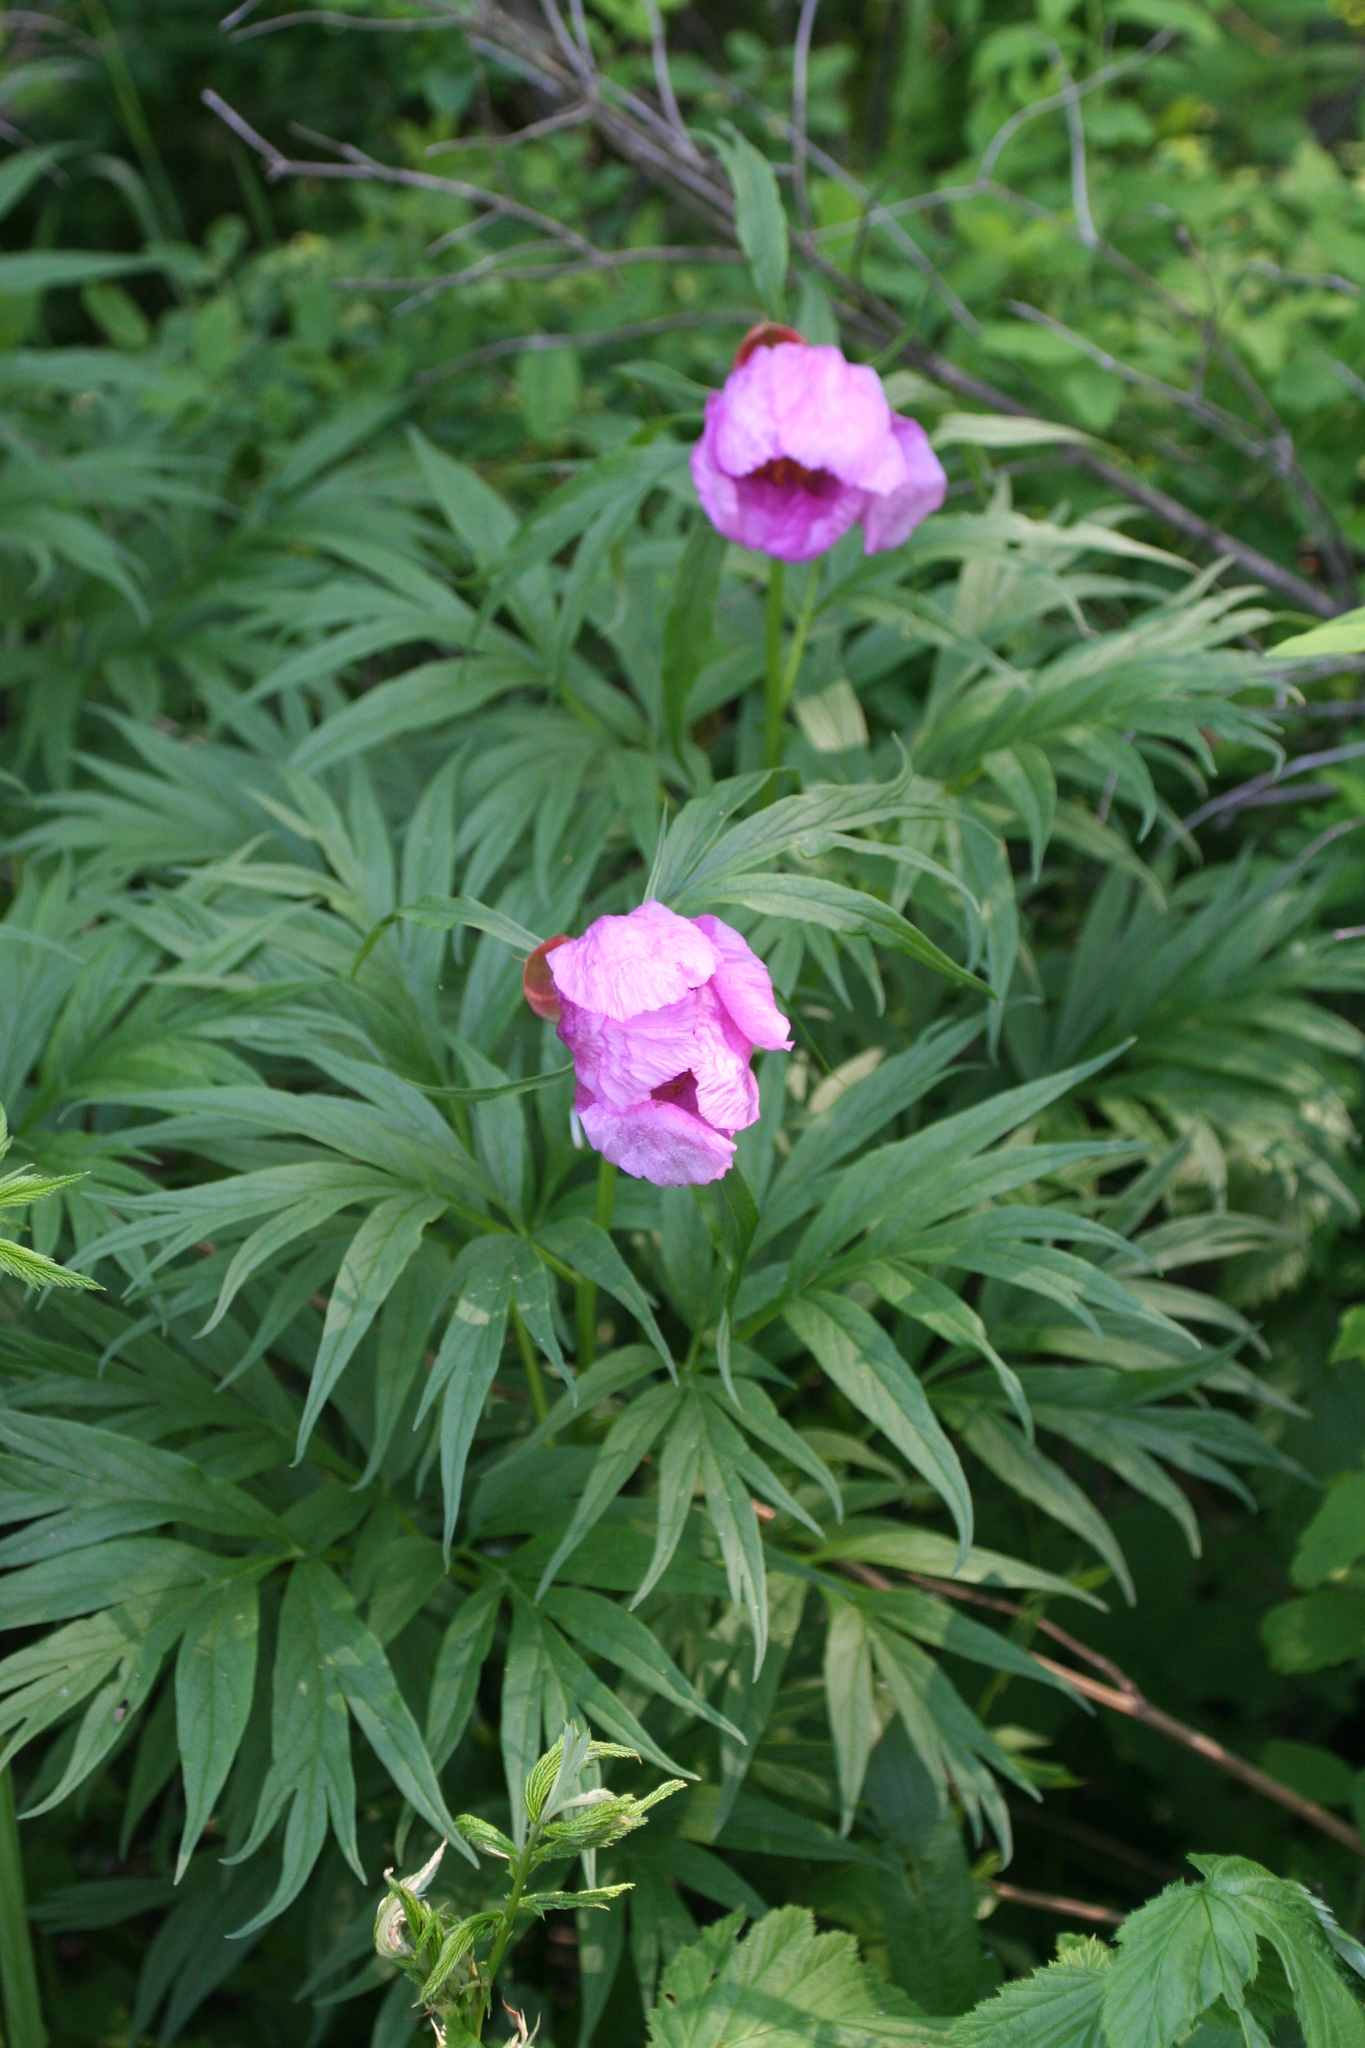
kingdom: Plantae
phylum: Tracheophyta
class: Magnoliopsida
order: Saxifragales
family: Paeoniaceae
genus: Paeonia
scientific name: Paeonia anomala
